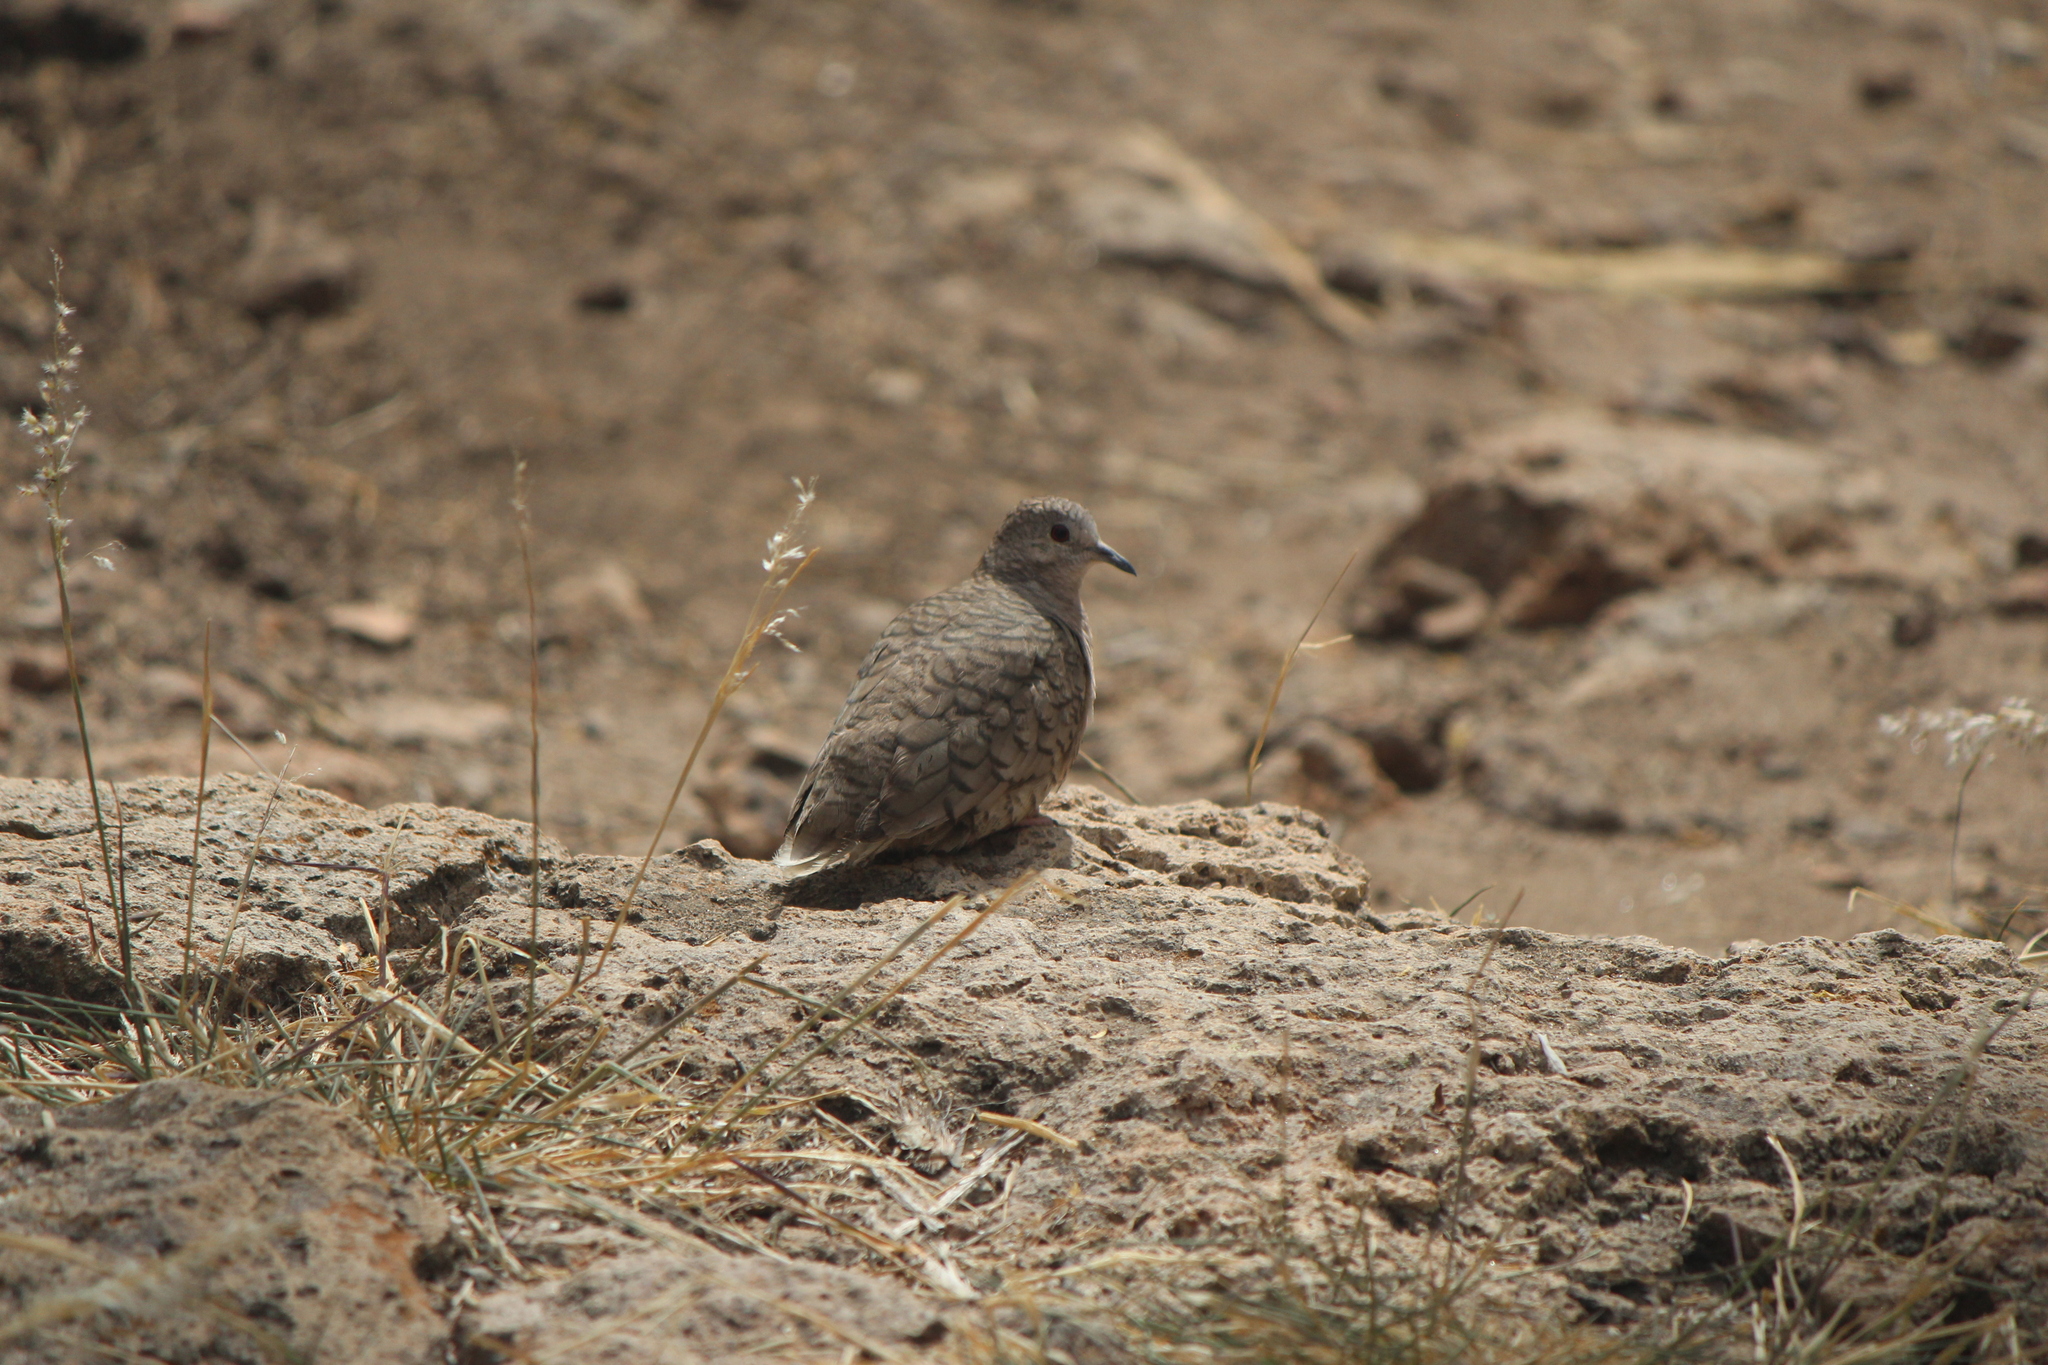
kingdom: Animalia
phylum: Chordata
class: Aves
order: Columbiformes
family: Columbidae
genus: Columbina
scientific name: Columbina inca
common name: Inca dove
